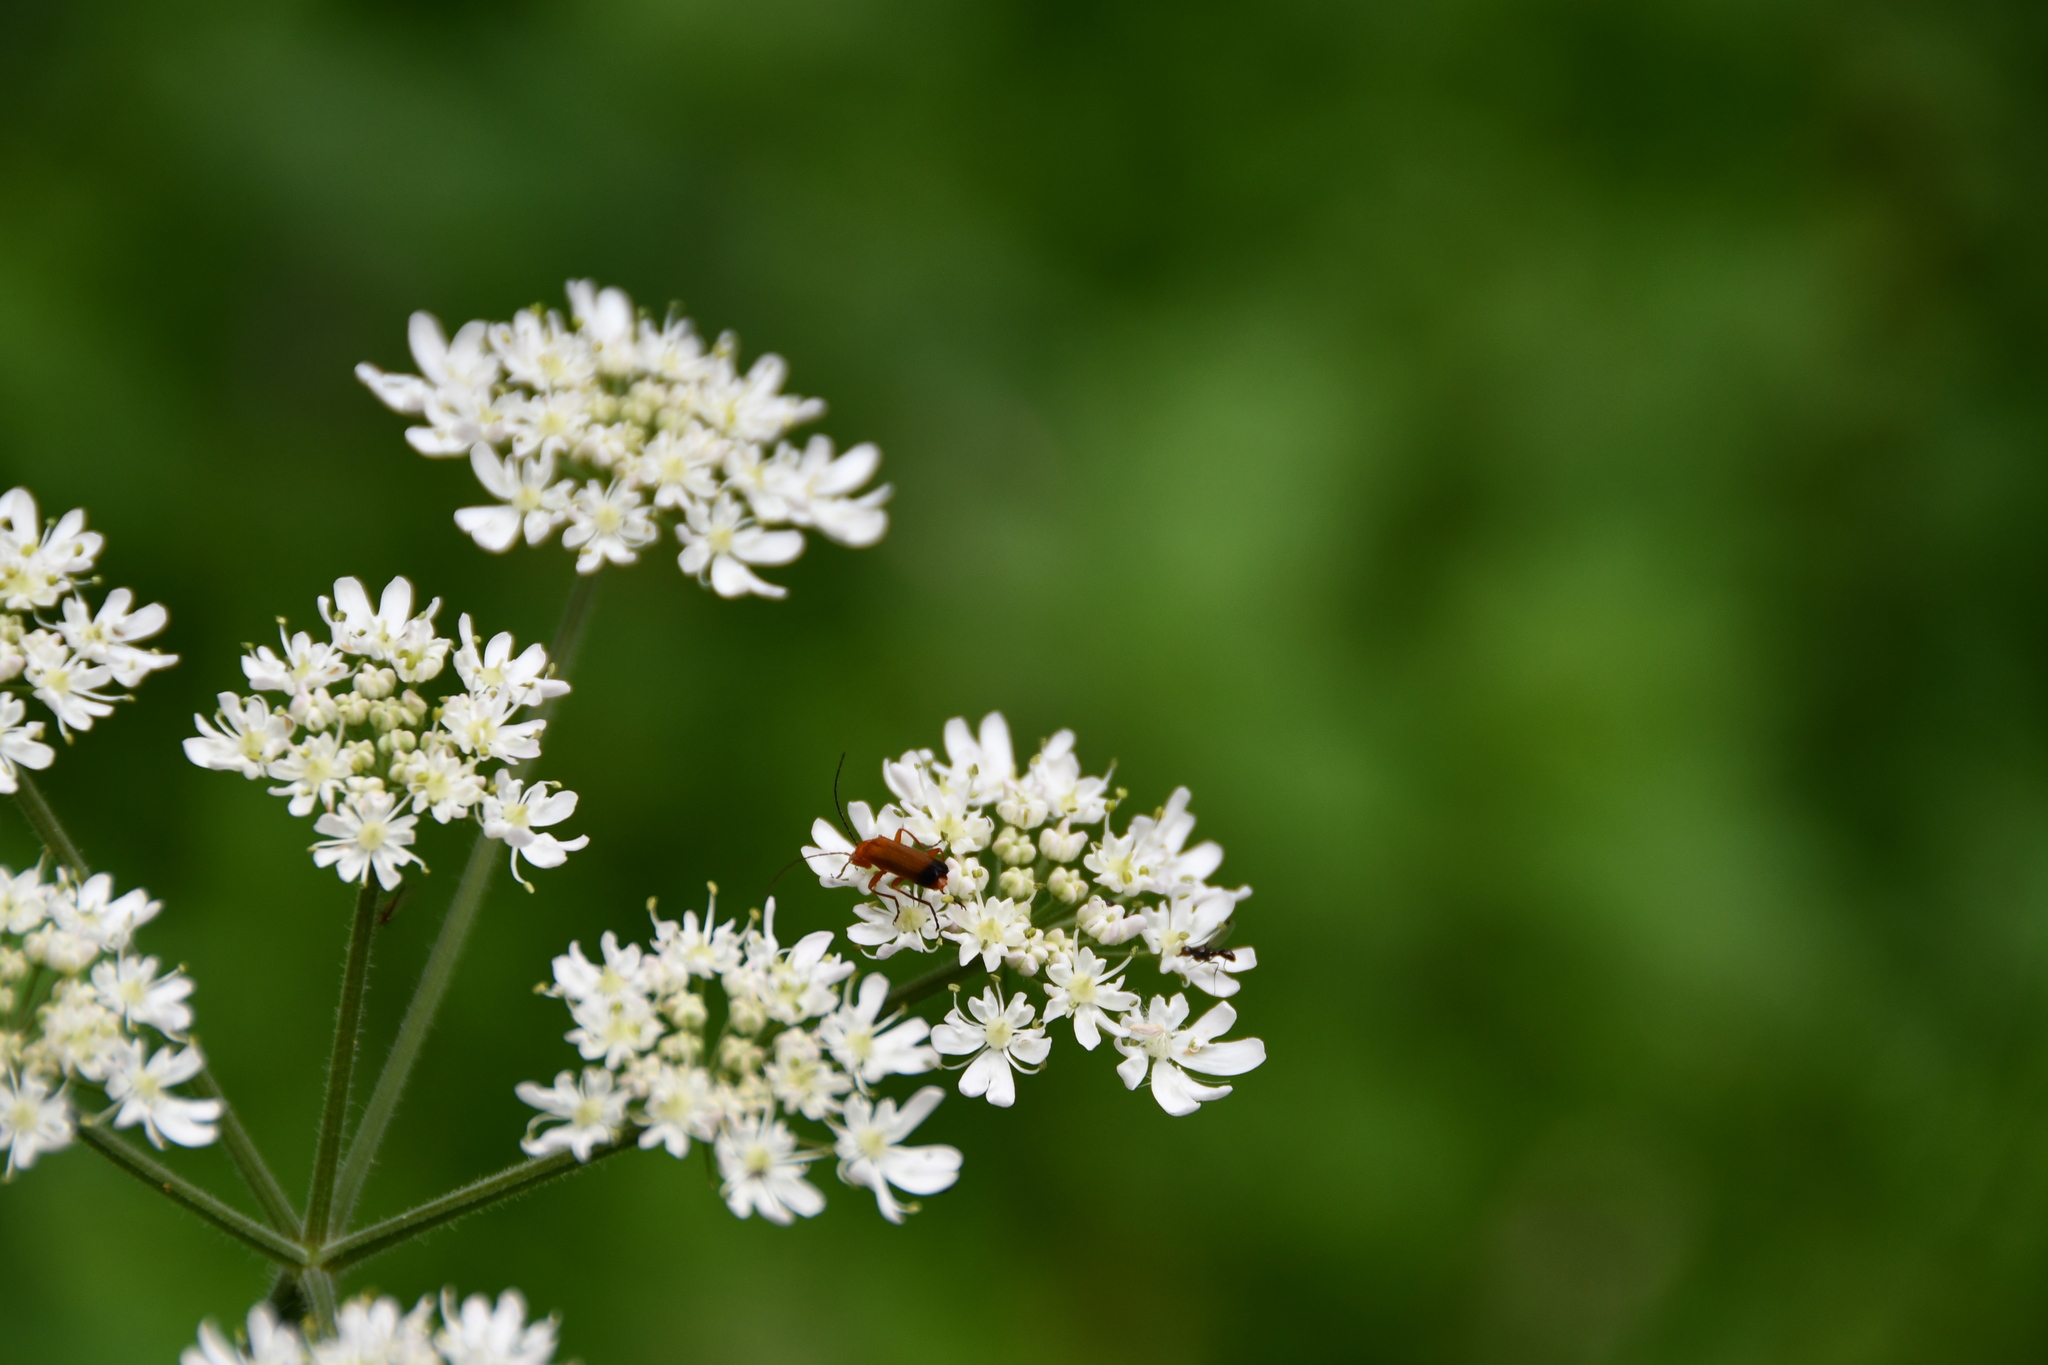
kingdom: Animalia
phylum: Arthropoda
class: Insecta
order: Coleoptera
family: Cantharidae
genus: Rhagonycha
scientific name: Rhagonycha fulva
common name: Common red soldier beetle
